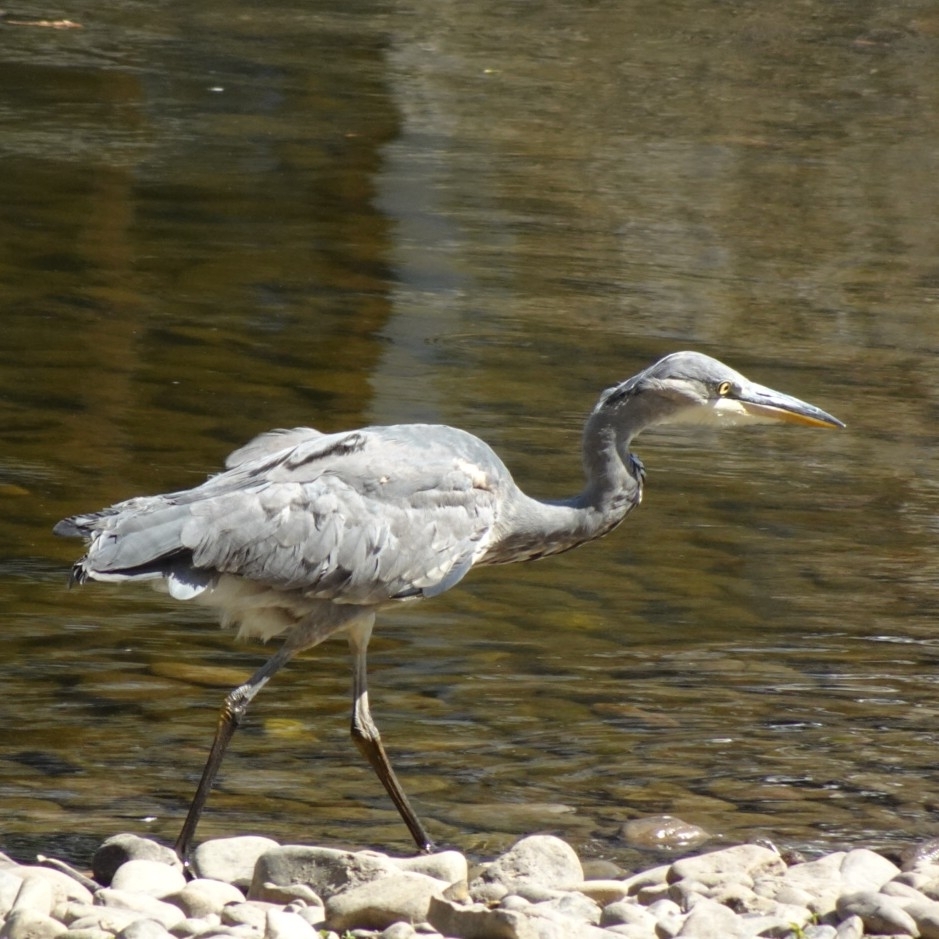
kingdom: Animalia
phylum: Chordata
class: Aves
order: Pelecaniformes
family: Ardeidae
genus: Ardea
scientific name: Ardea cinerea
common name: Grey heron
